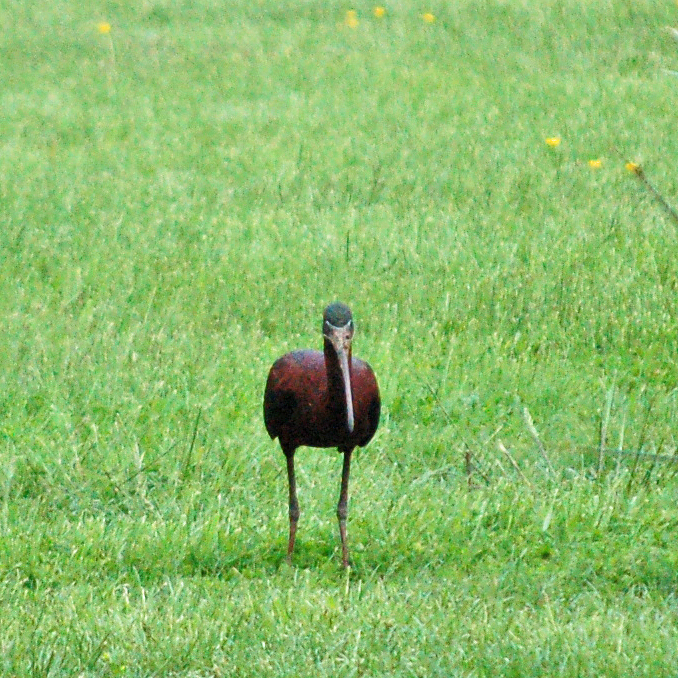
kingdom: Animalia
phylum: Chordata
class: Aves
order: Pelecaniformes
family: Threskiornithidae
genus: Plegadis
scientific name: Plegadis falcinellus
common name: Glossy ibis
